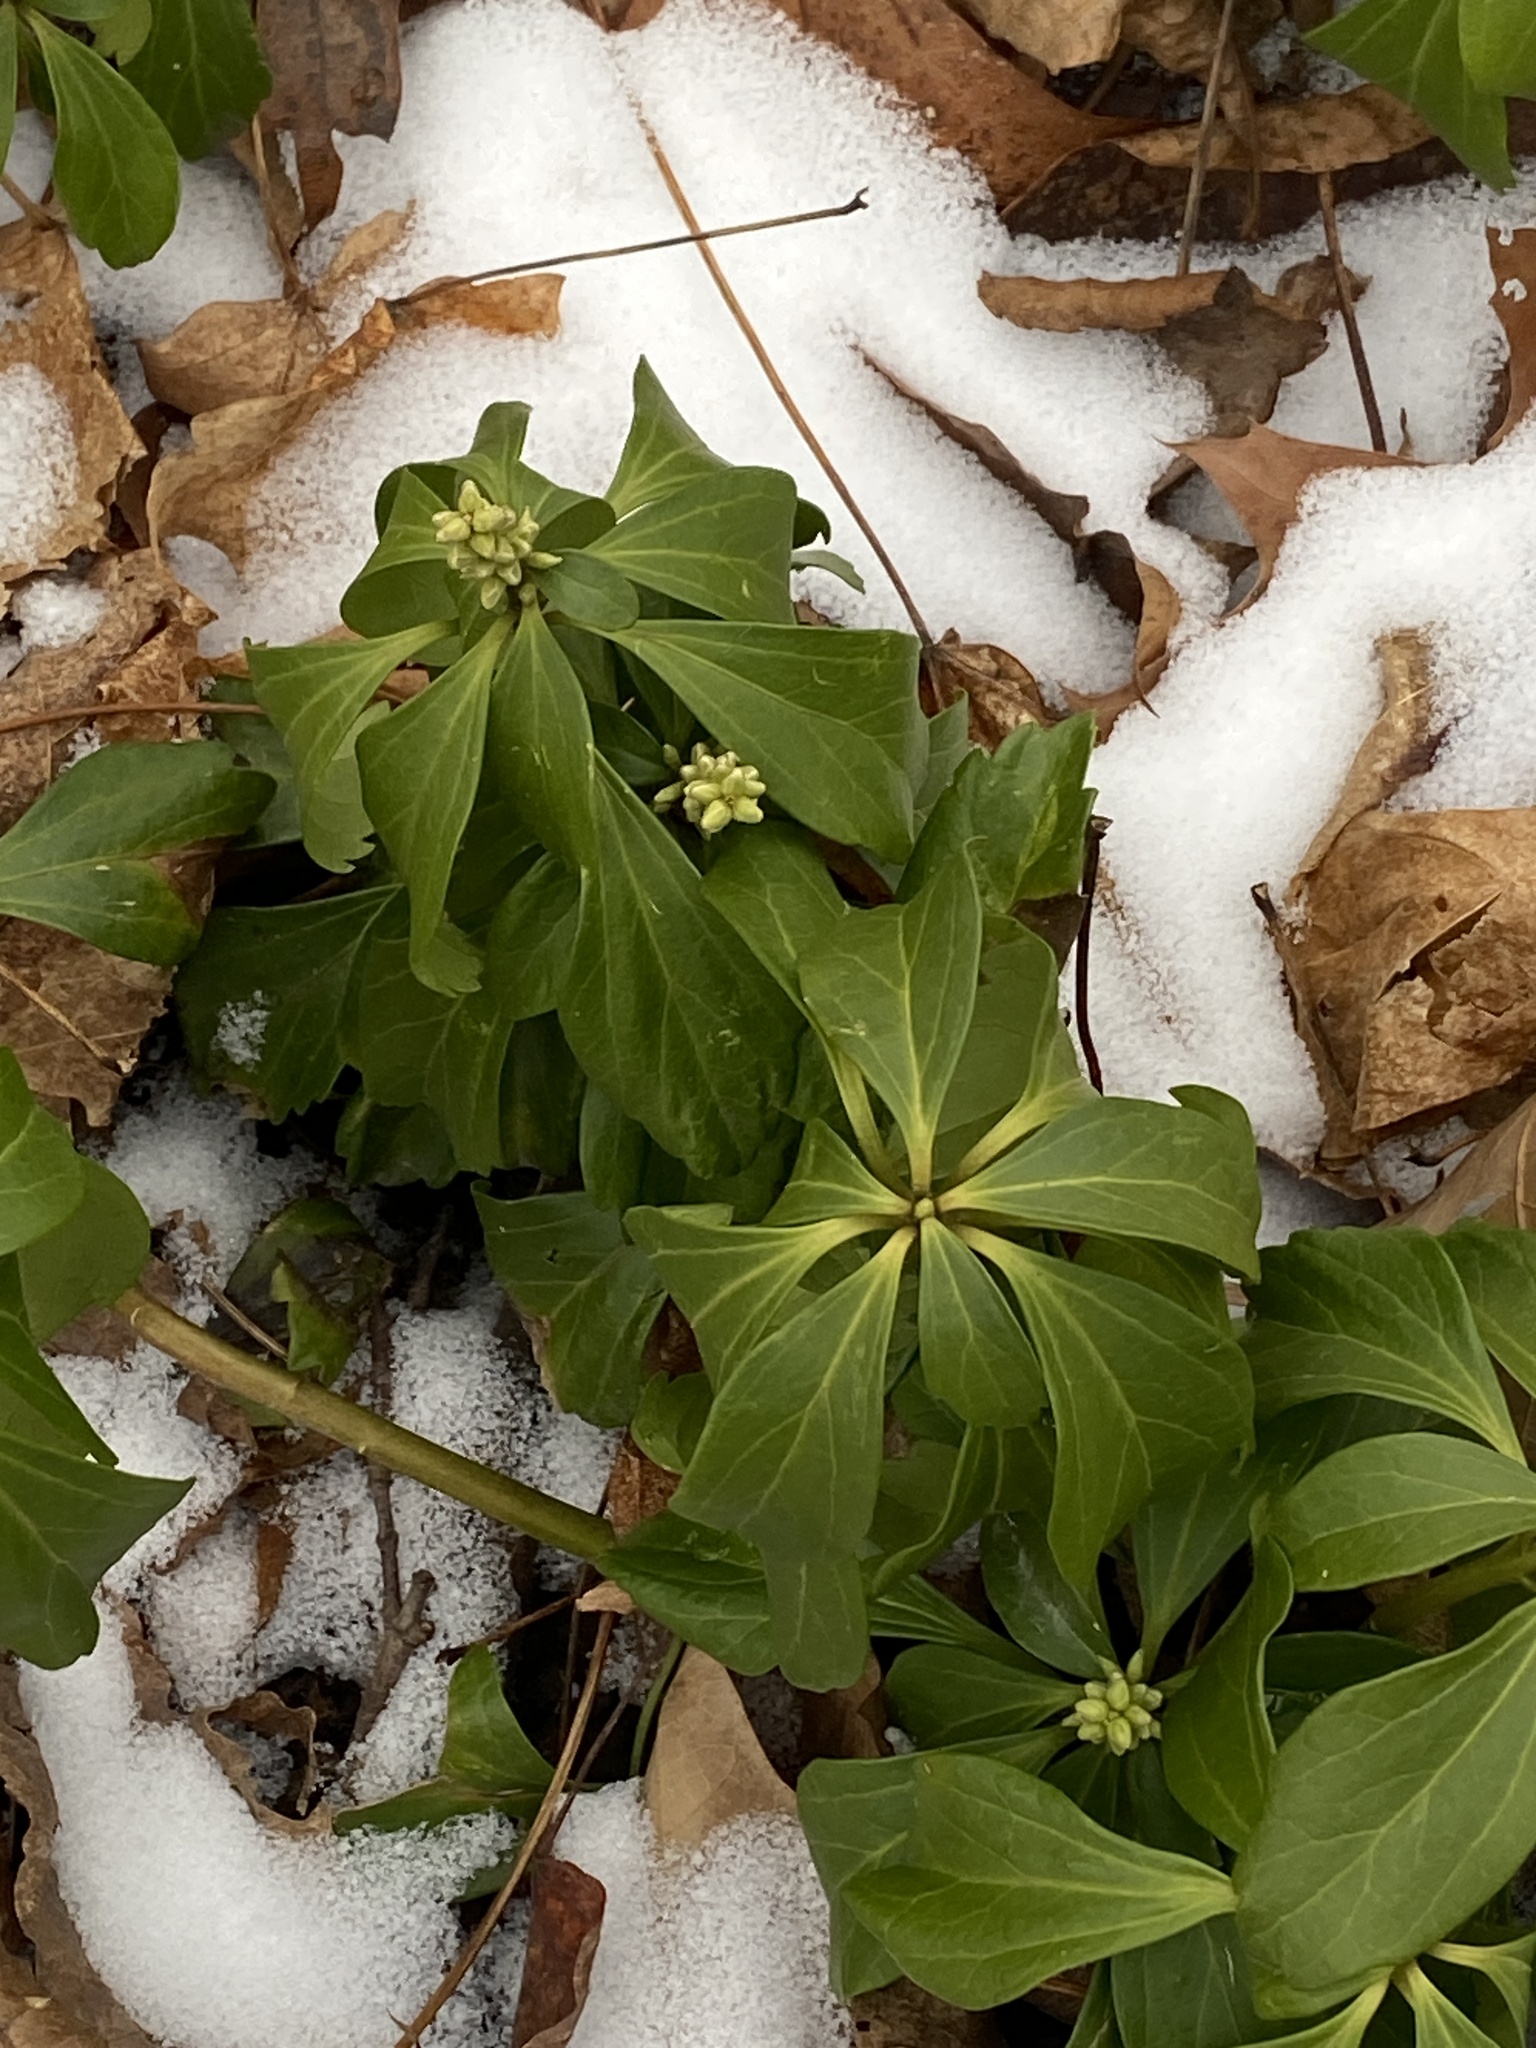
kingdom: Plantae
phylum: Tracheophyta
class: Magnoliopsida
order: Buxales
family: Buxaceae
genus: Pachysandra
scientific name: Pachysandra terminalis
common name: Japanese pachysandra
